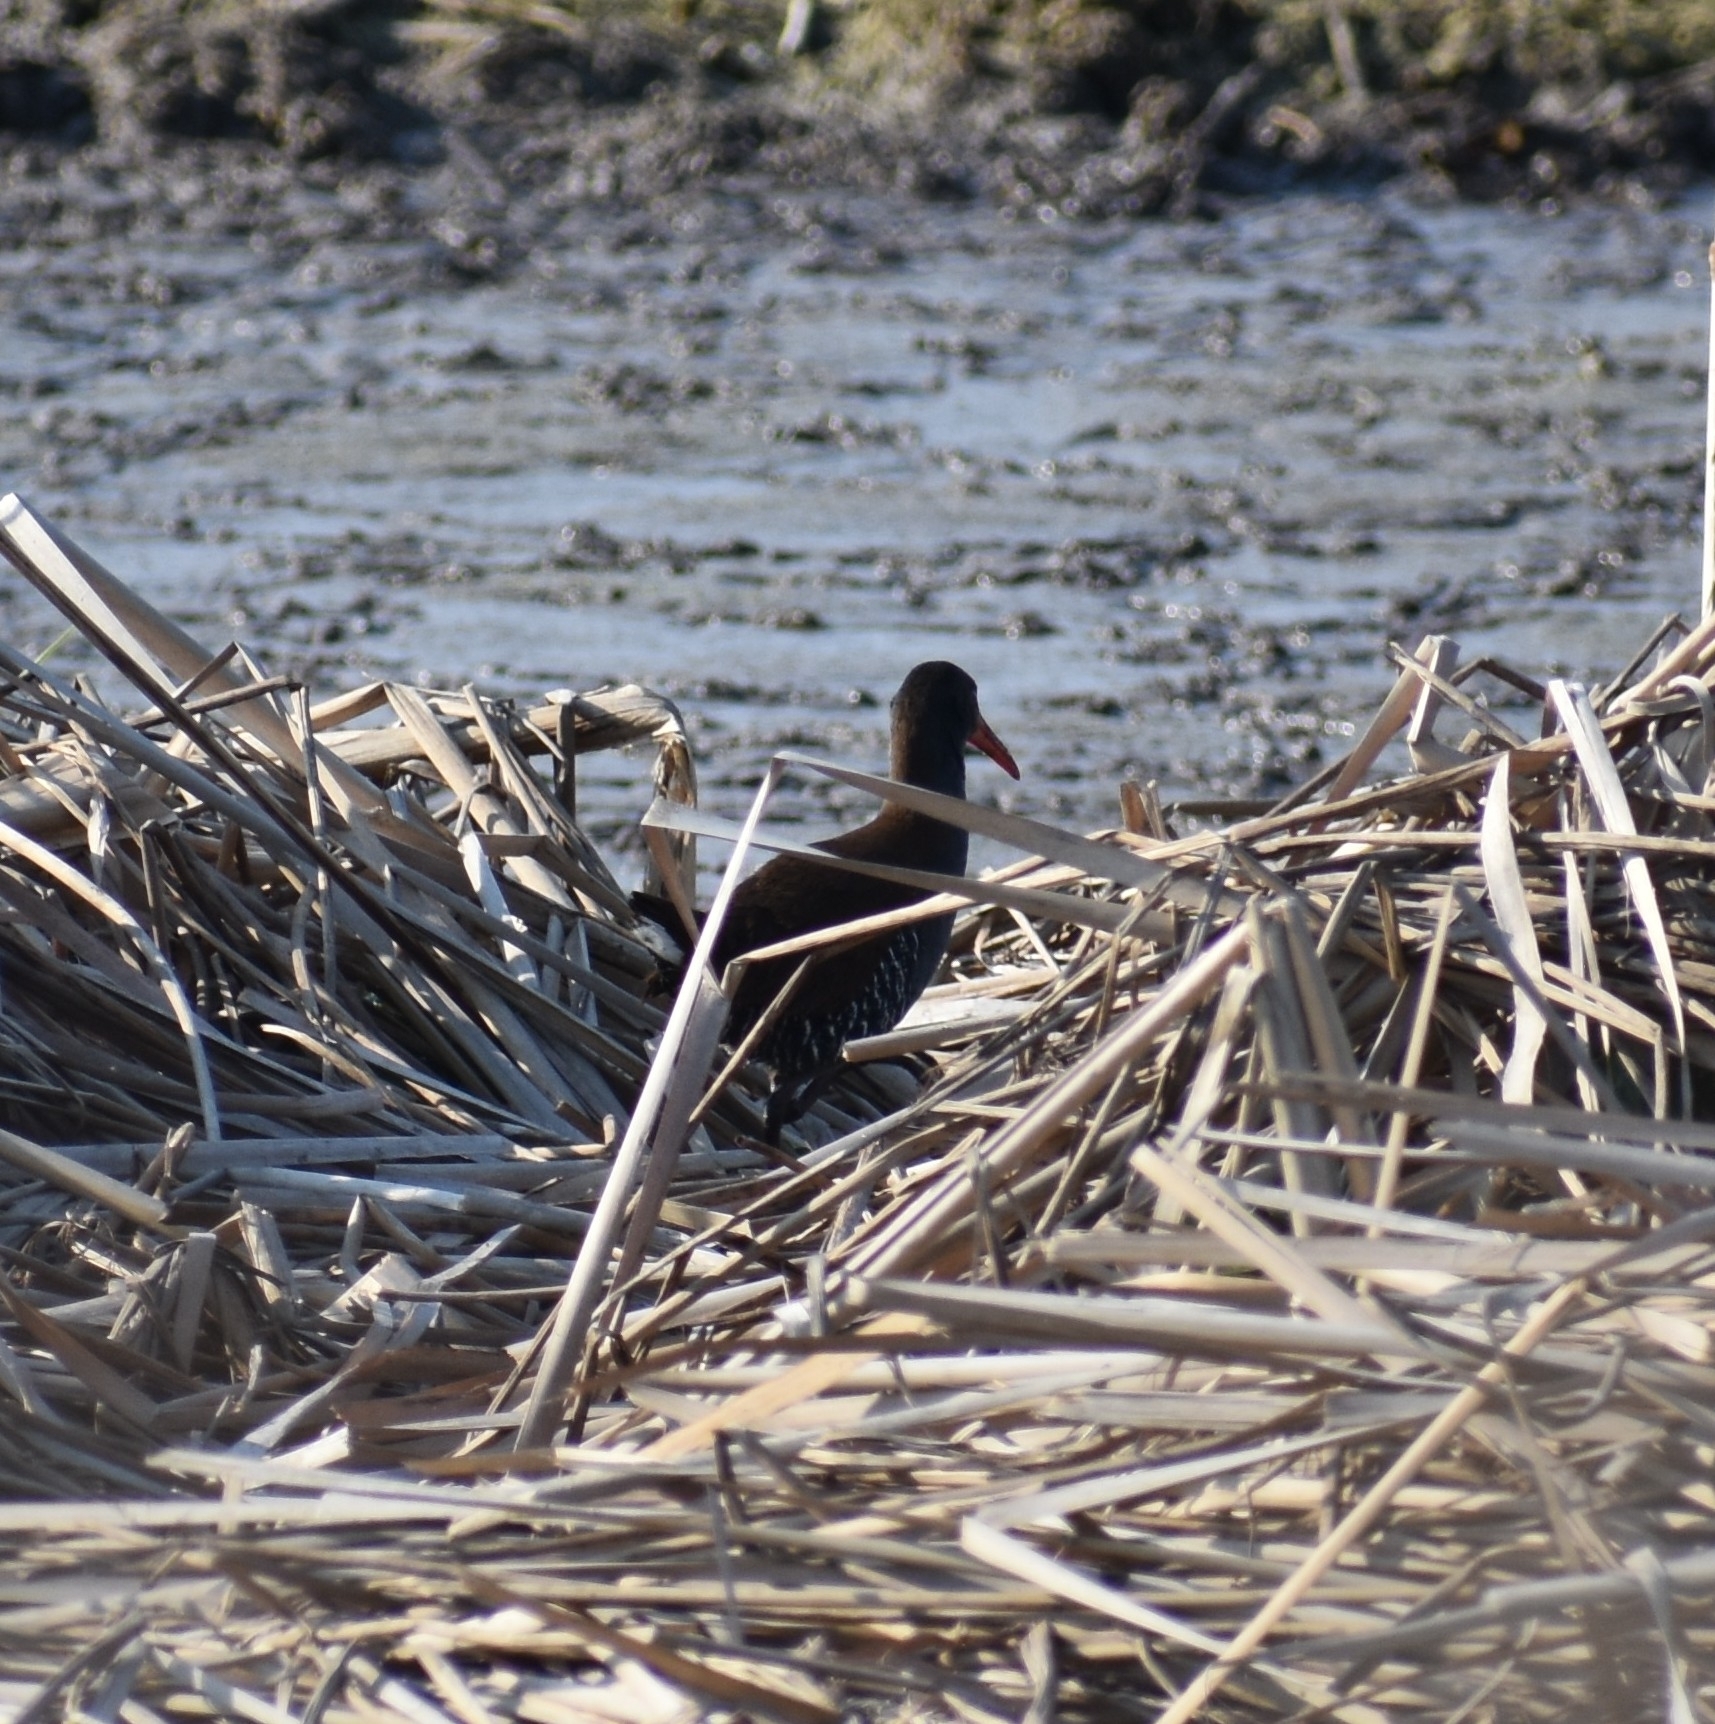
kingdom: Animalia
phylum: Chordata
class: Aves
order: Gruiformes
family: Rallidae
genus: Rallus
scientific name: Rallus caerulescens
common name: African rail
